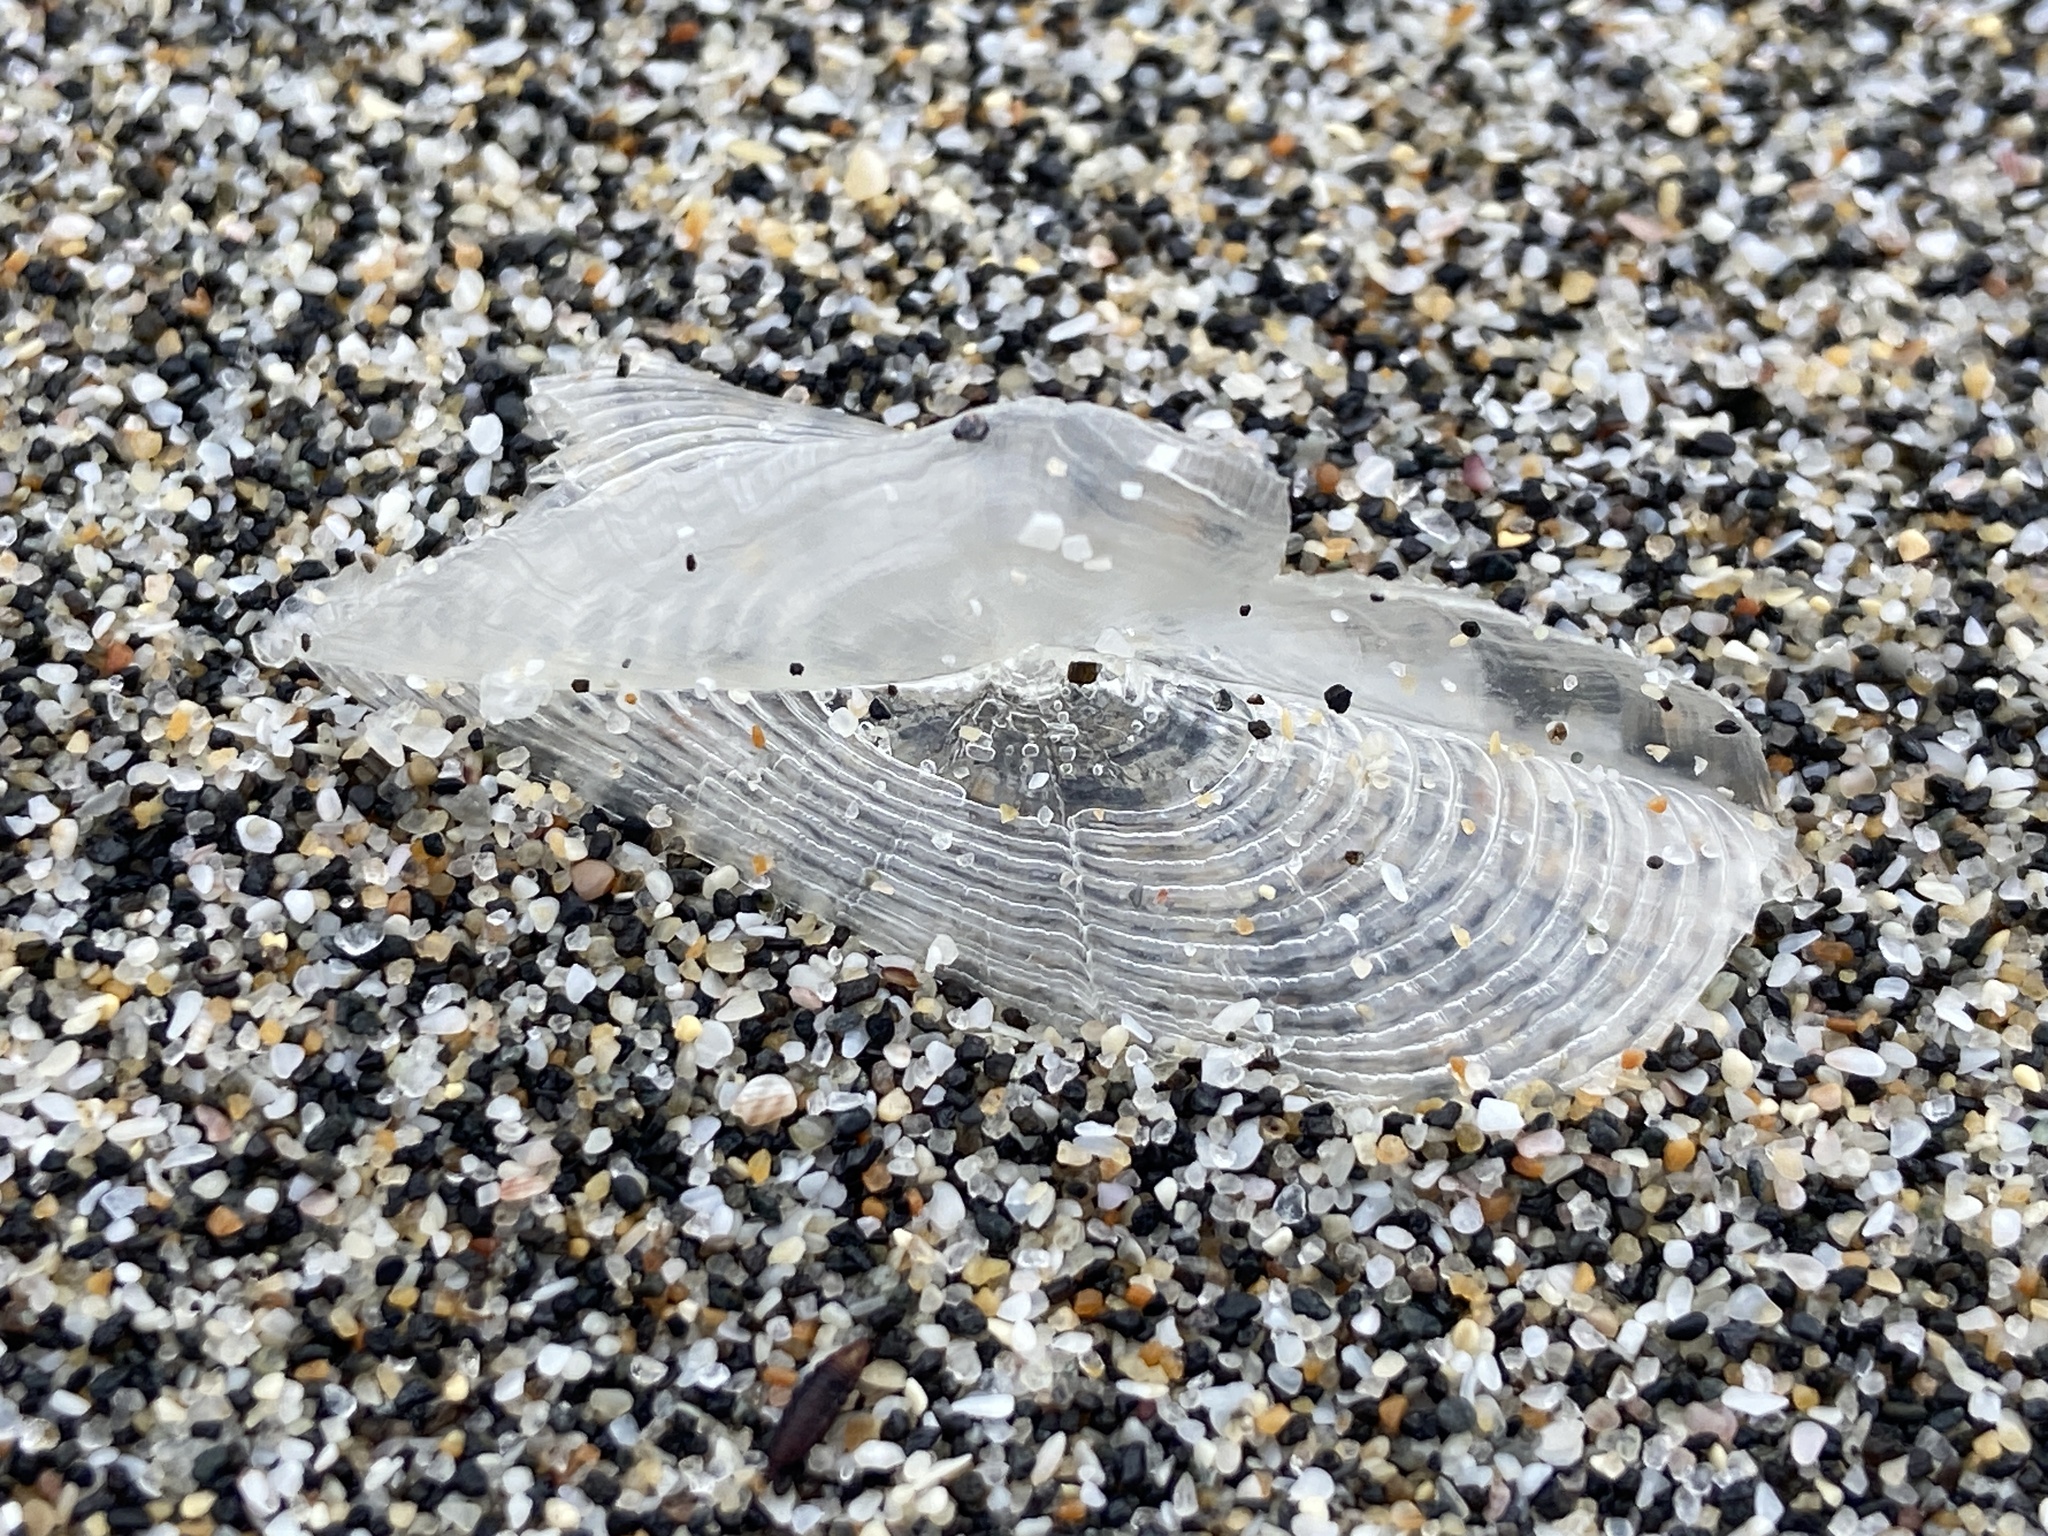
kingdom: Animalia
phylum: Cnidaria
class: Hydrozoa
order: Anthoathecata
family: Porpitidae
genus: Velella
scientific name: Velella velella
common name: By-the-wind-sailor
